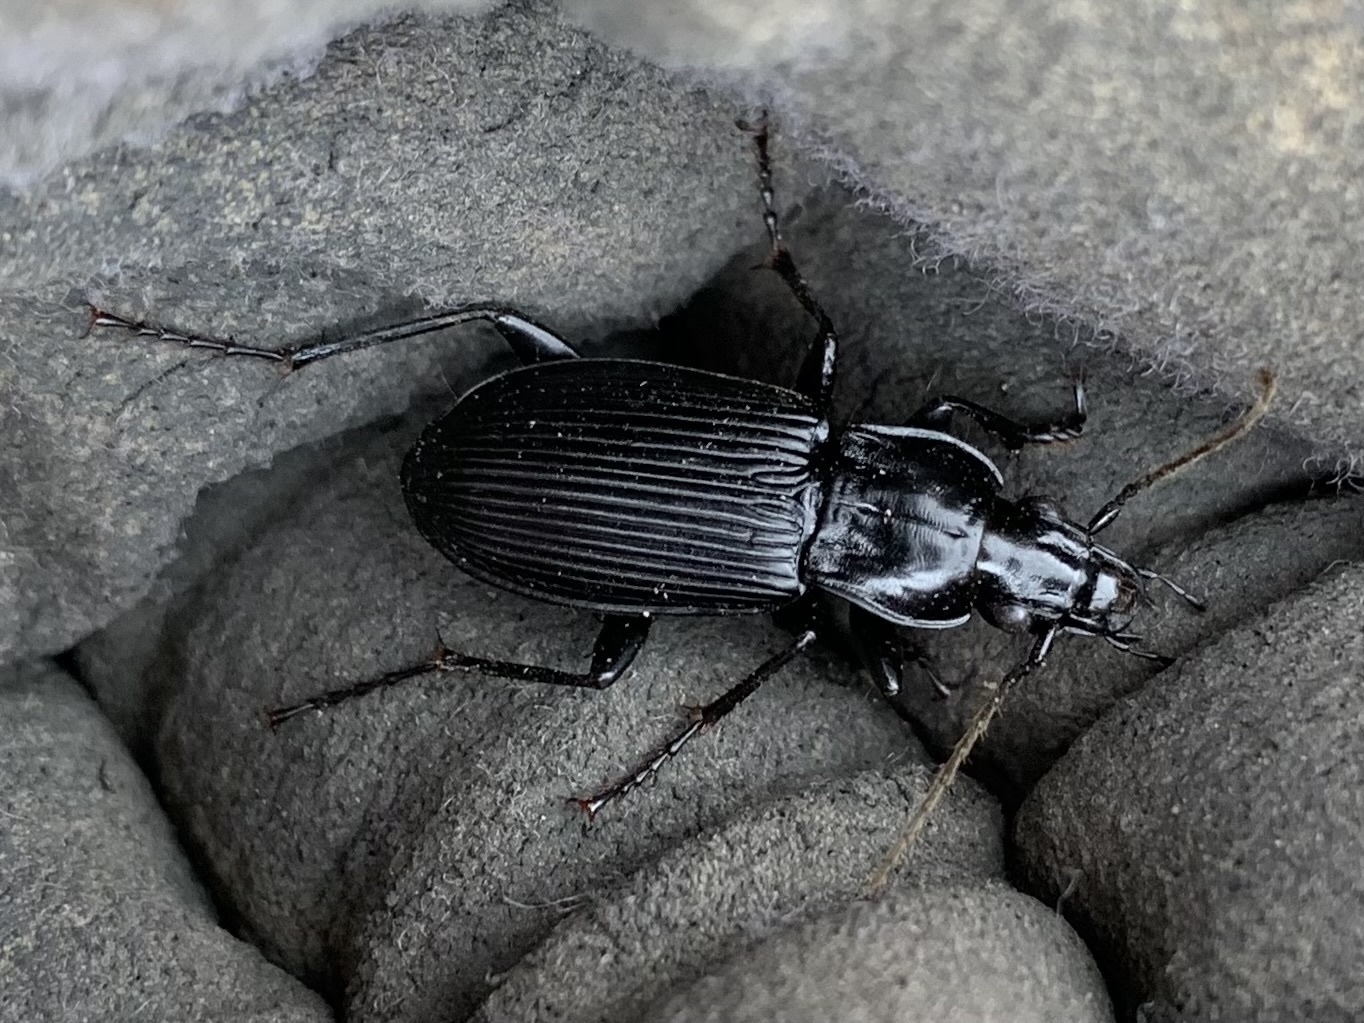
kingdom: Animalia
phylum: Arthropoda
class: Insecta
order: Coleoptera
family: Carabidae
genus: Pterostichus
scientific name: Pterostichus niger
